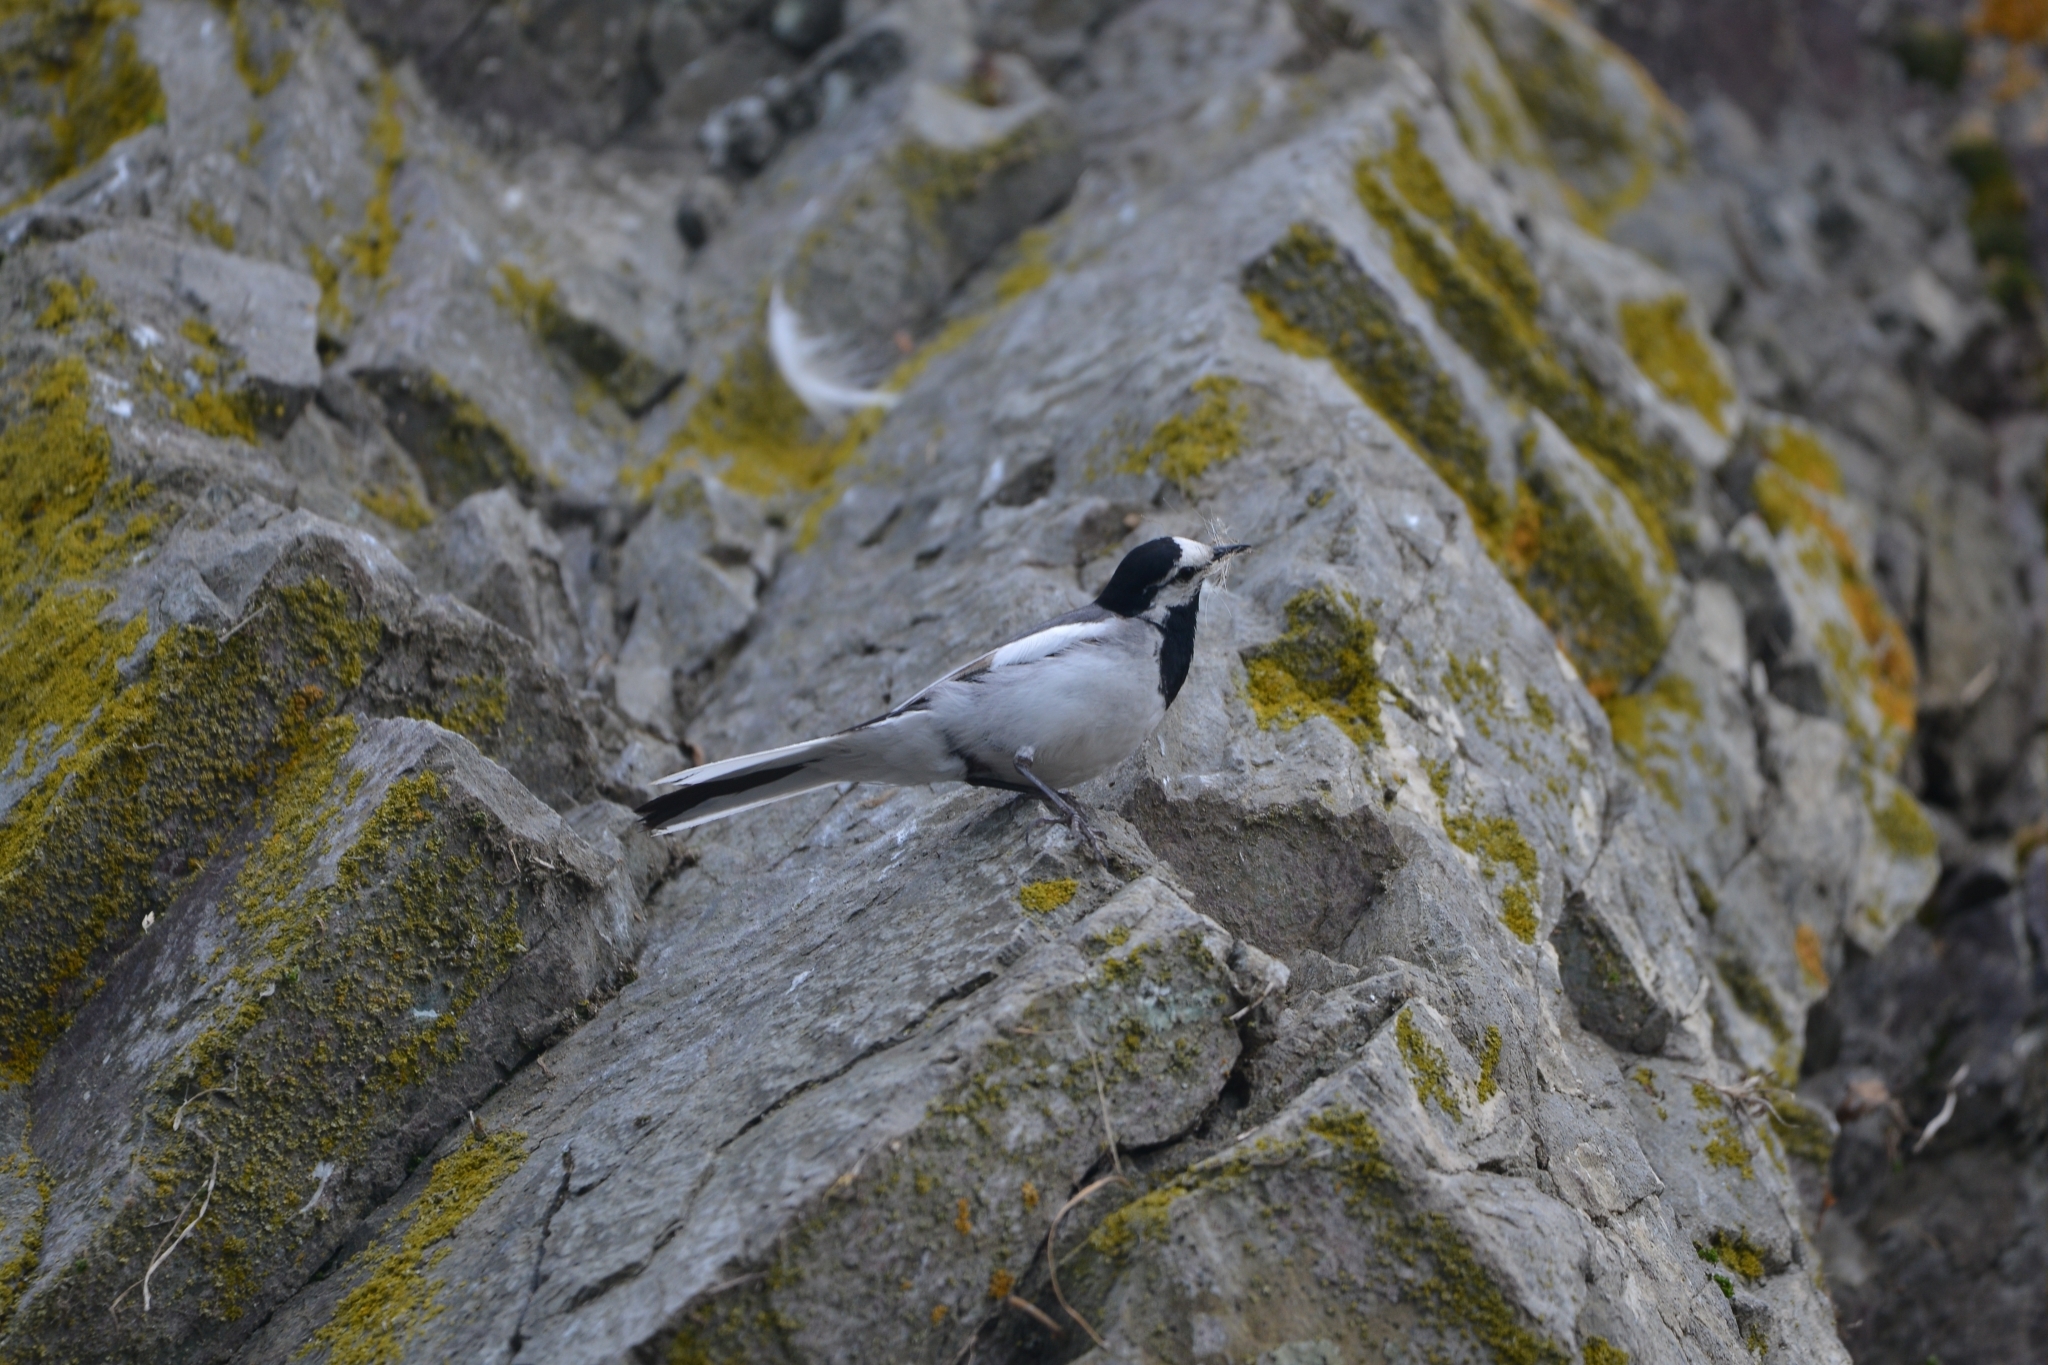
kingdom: Animalia
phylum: Chordata
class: Aves
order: Passeriformes
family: Motacillidae
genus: Motacilla
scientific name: Motacilla alba
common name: White wagtail
